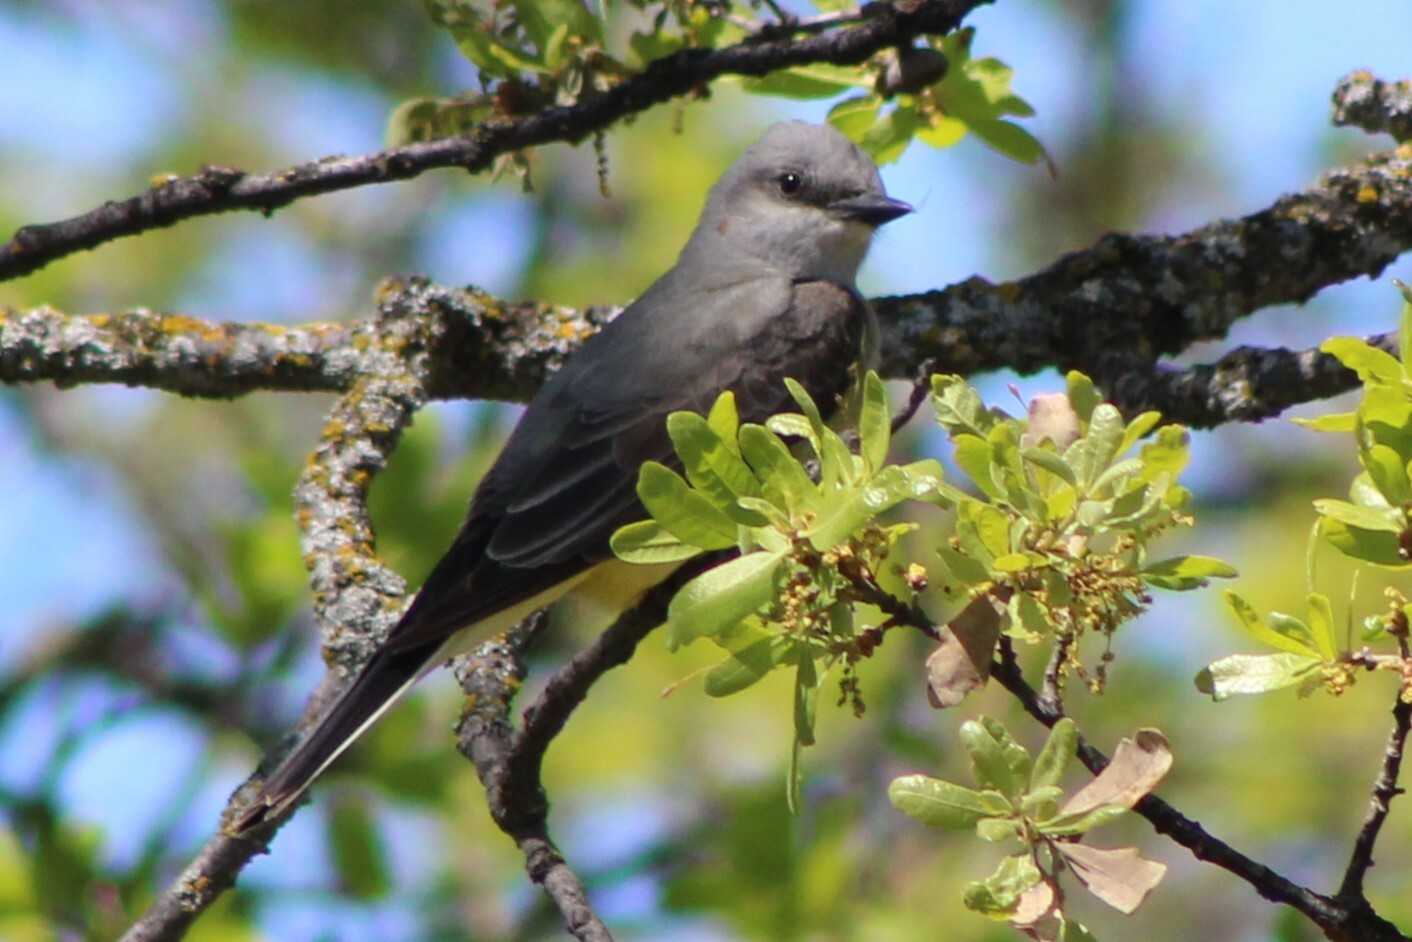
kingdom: Animalia
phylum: Chordata
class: Aves
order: Passeriformes
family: Tyrannidae
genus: Tyrannus
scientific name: Tyrannus verticalis
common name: Western kingbird
